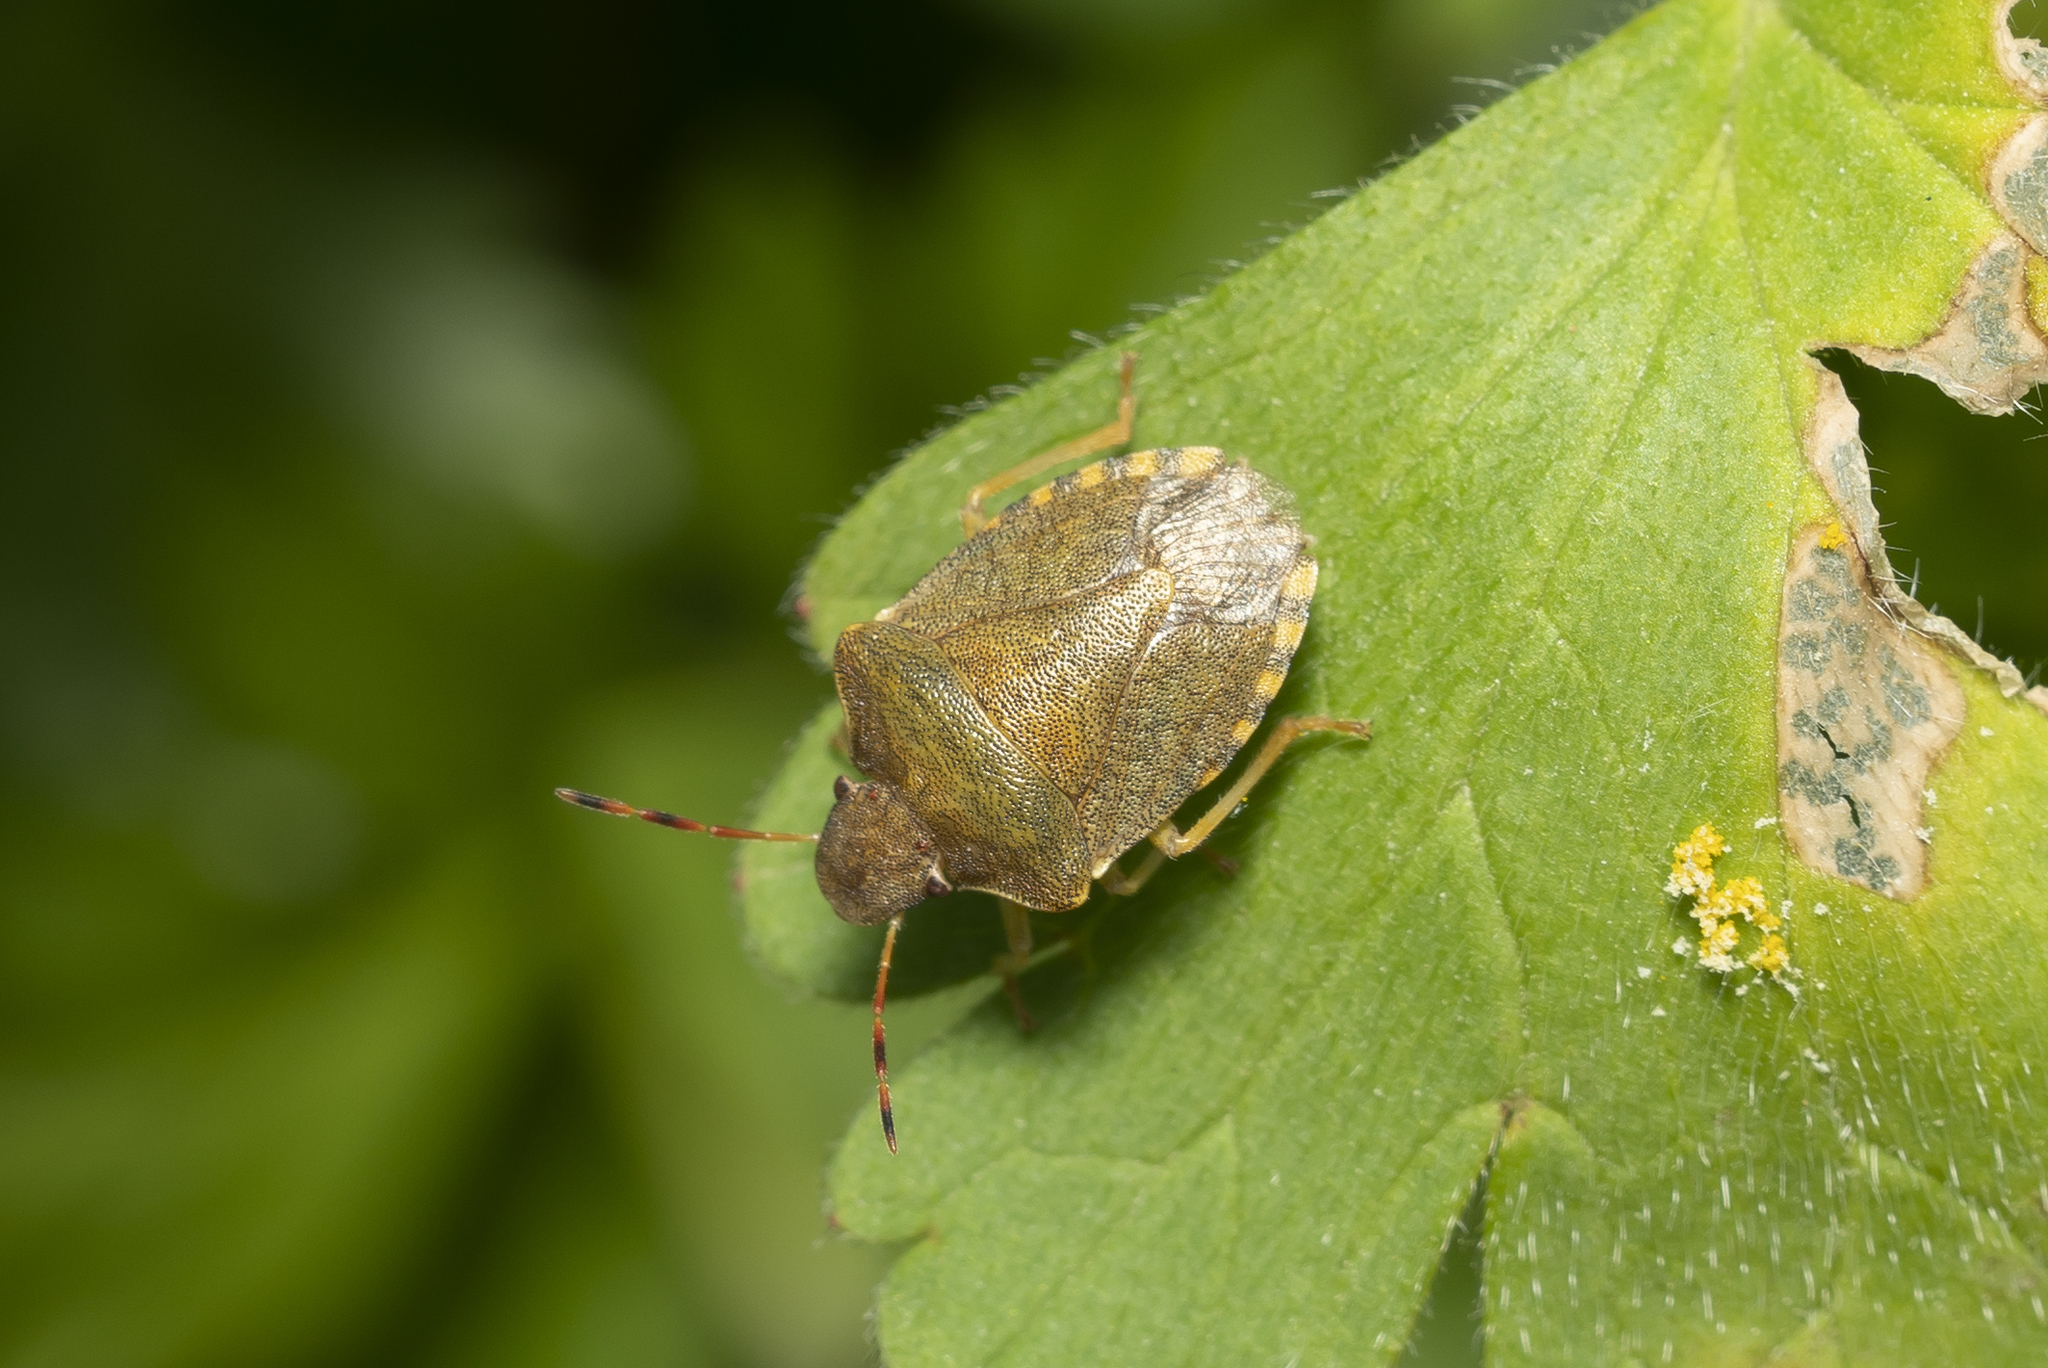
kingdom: Animalia
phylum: Arthropoda
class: Insecta
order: Hemiptera
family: Pentatomidae
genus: Holcostethus
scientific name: Holcostethus strictus
